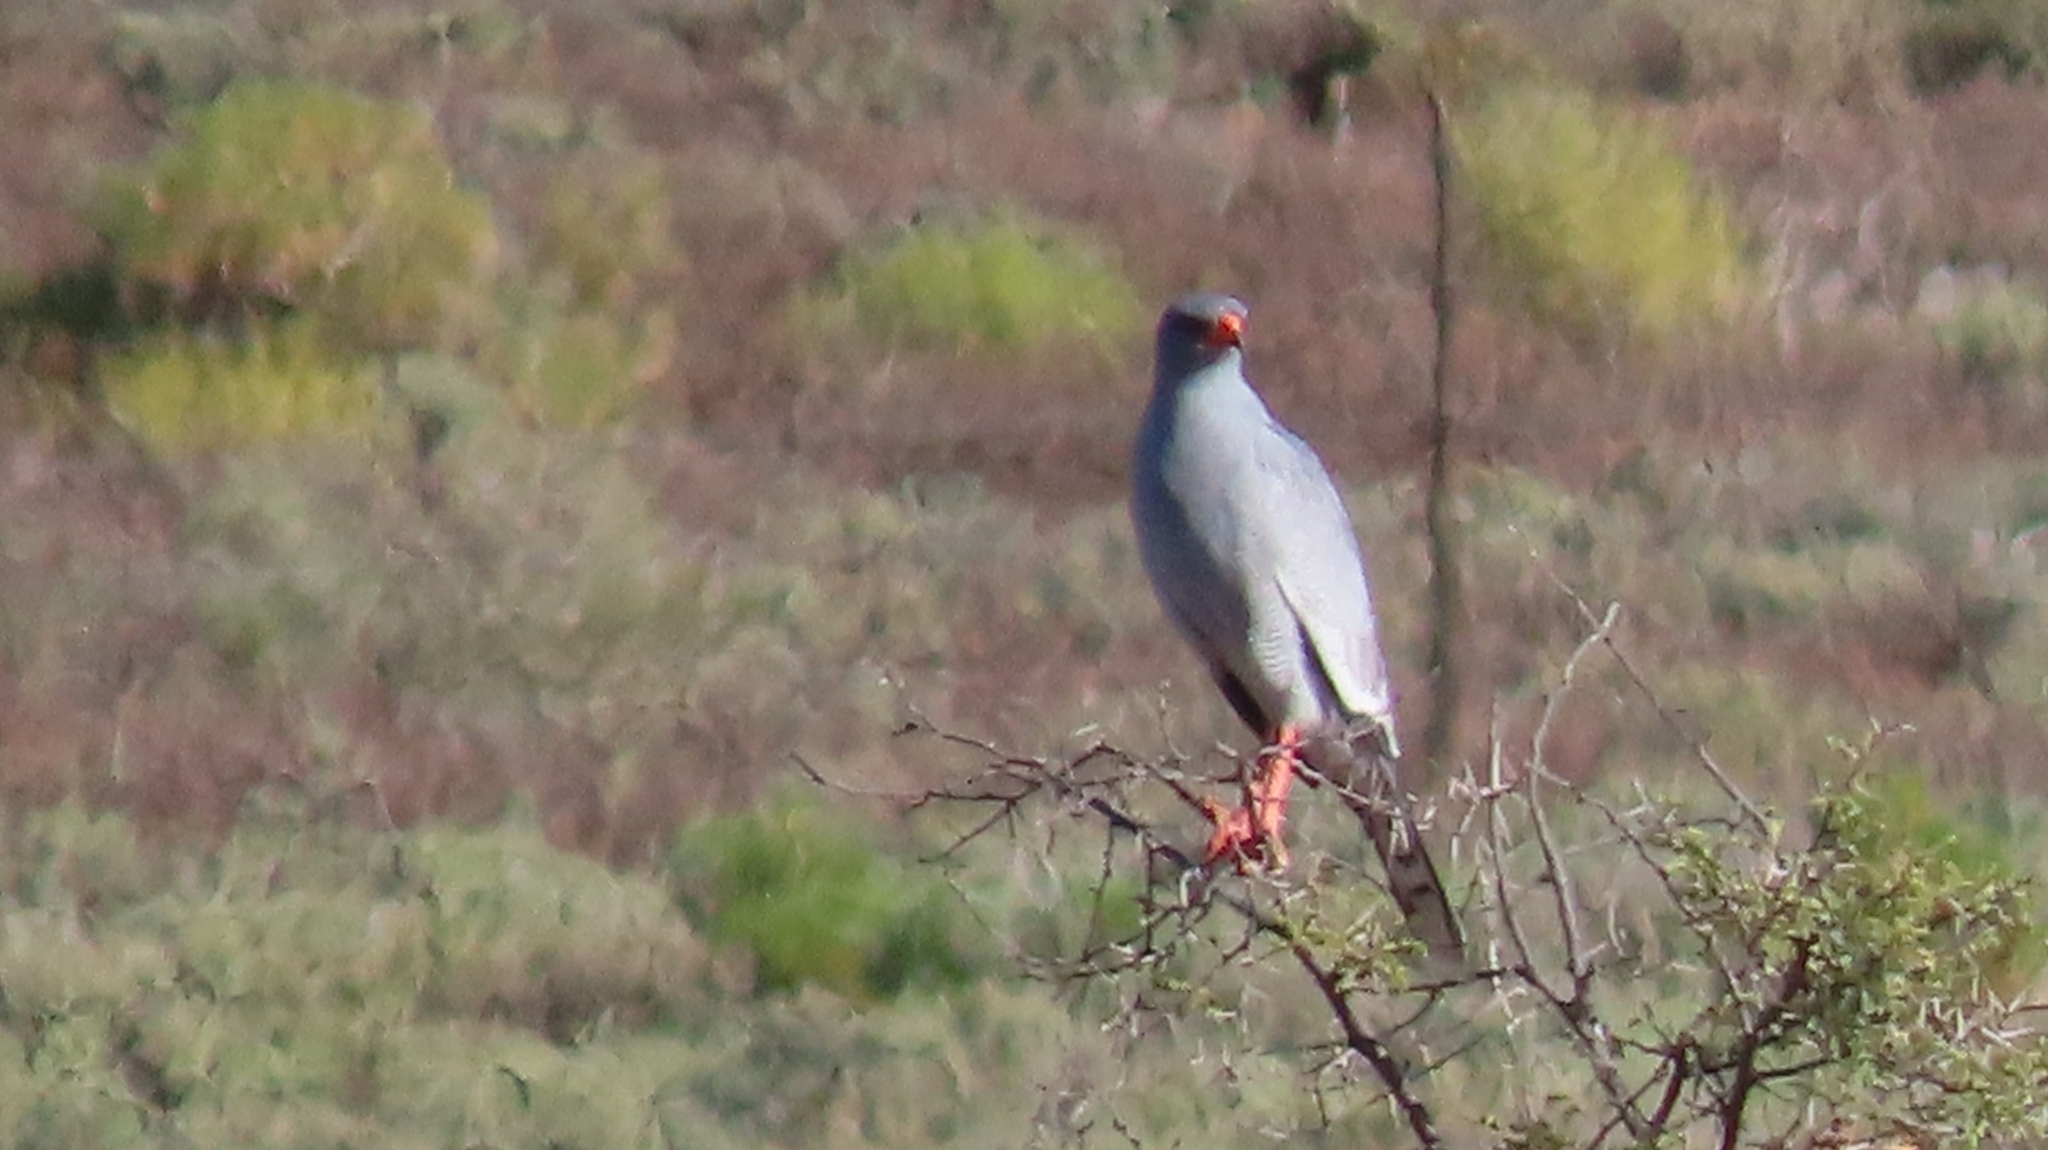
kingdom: Animalia
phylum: Chordata
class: Aves
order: Accipitriformes
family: Accipitridae
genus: Melierax
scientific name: Melierax canorus
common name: Pale chanting-goshawk
